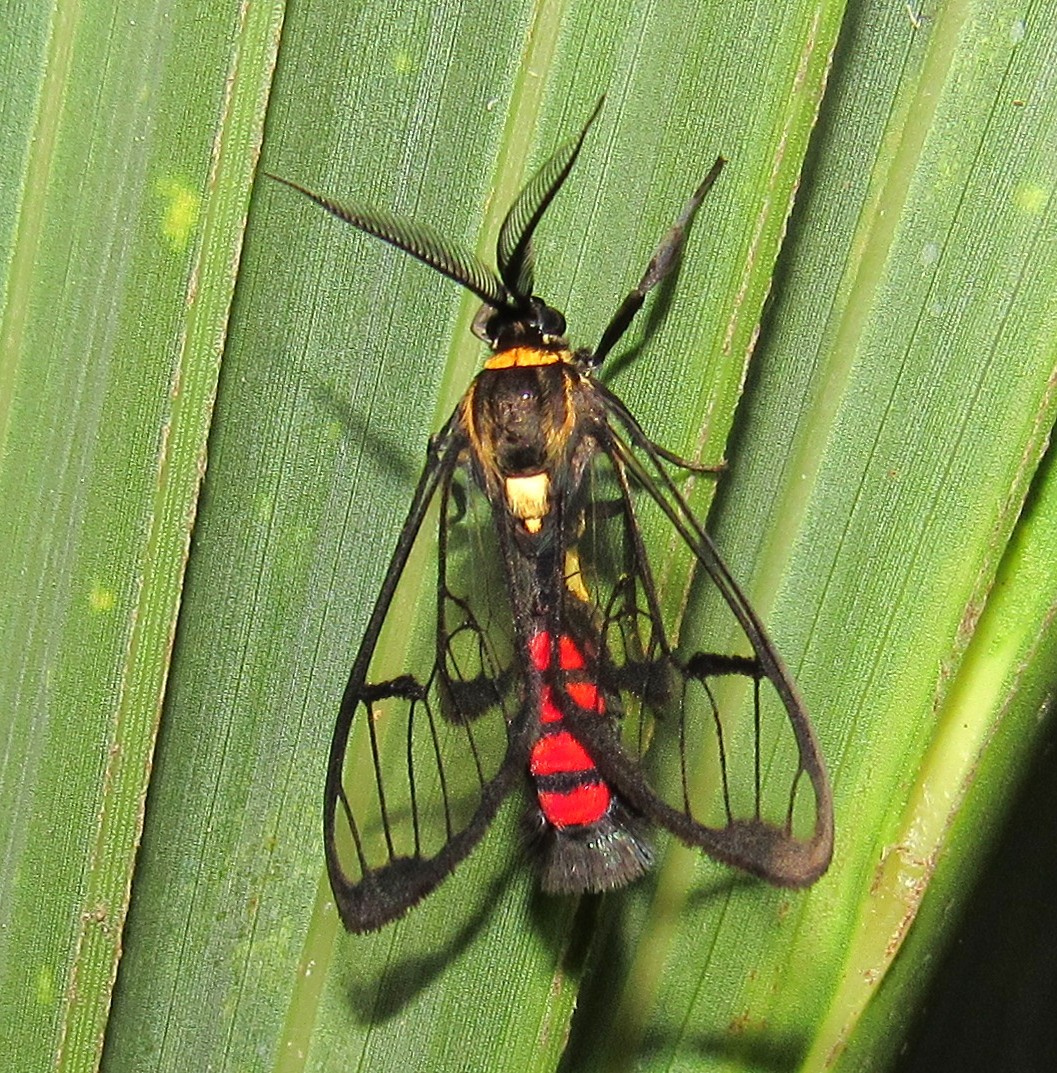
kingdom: Animalia
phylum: Arthropoda
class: Insecta
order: Lepidoptera
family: Erebidae
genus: Argyroeides
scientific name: Argyroeides sanguinea
